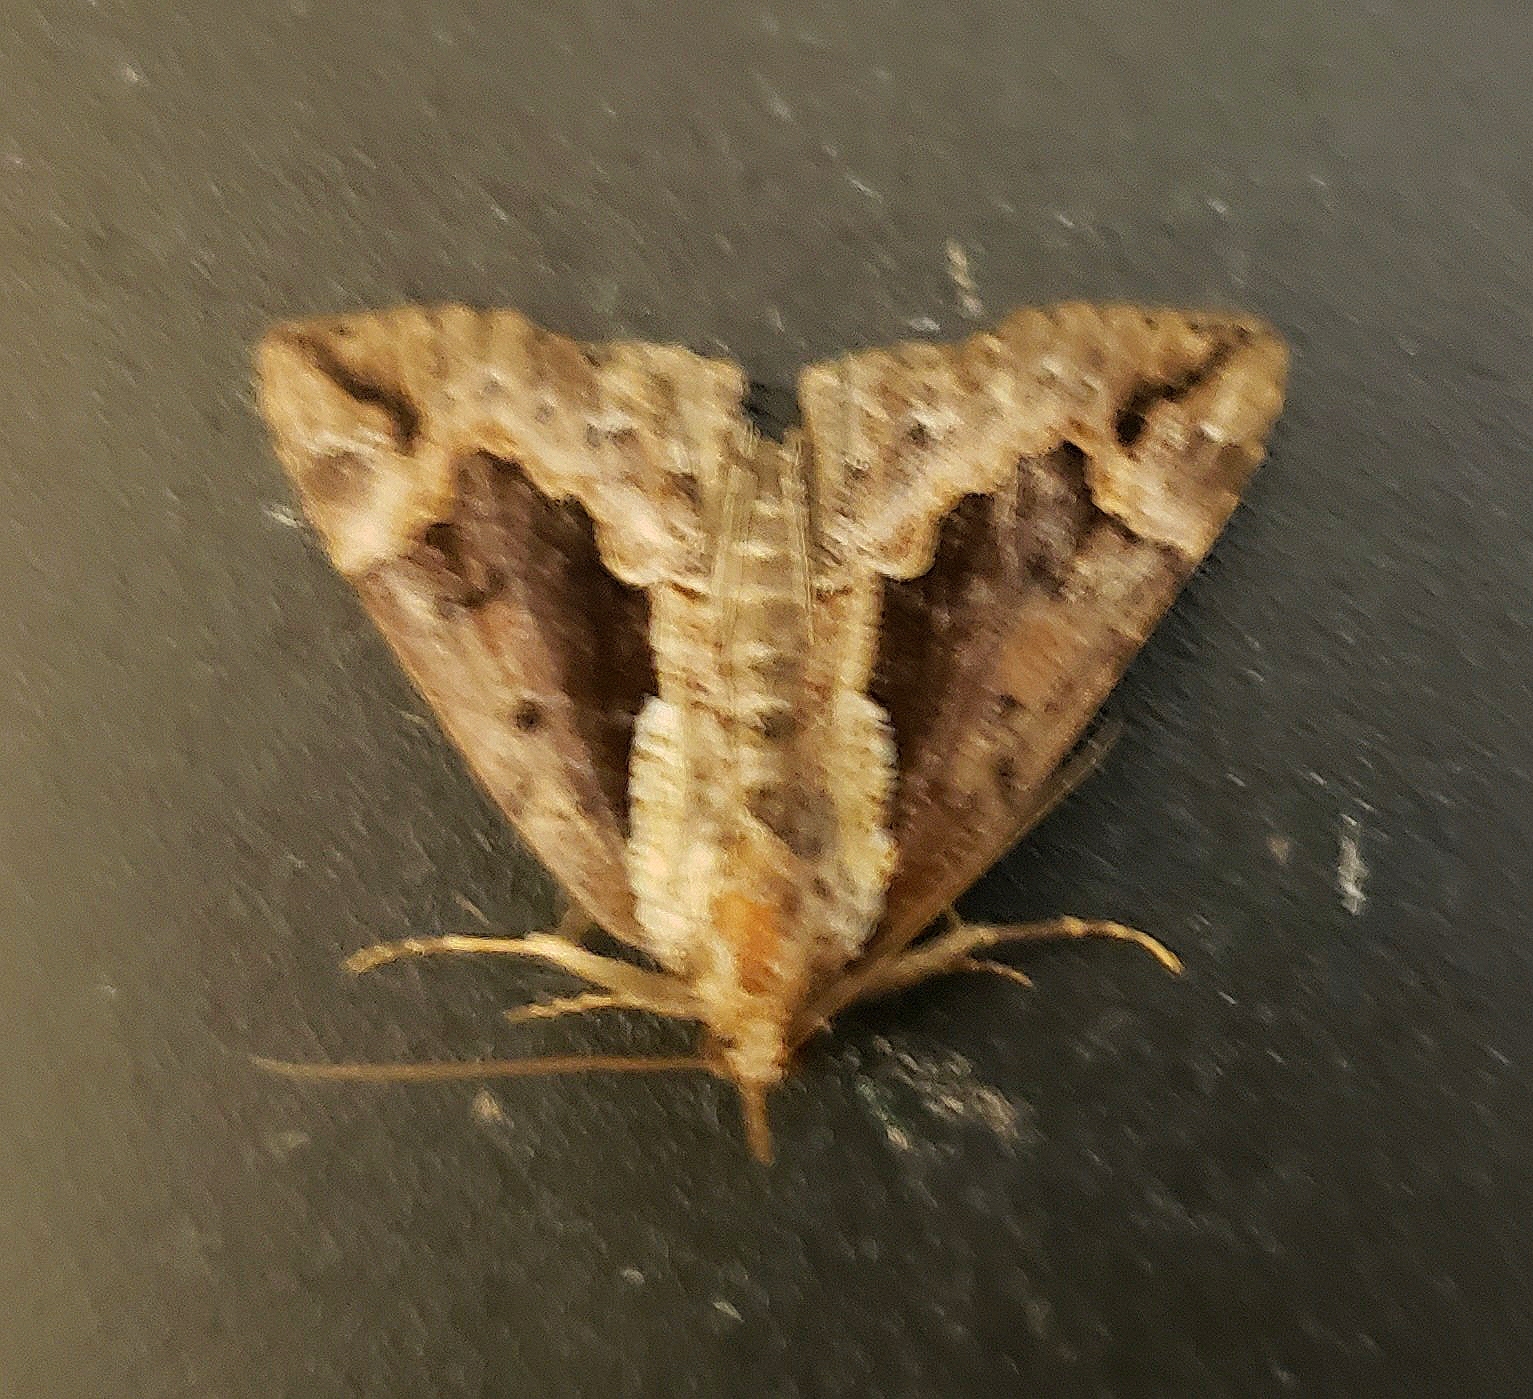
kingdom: Animalia
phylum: Arthropoda
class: Insecta
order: Lepidoptera
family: Erebidae
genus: Hypena
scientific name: Hypena baltimoralis
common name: Baltimore snout
